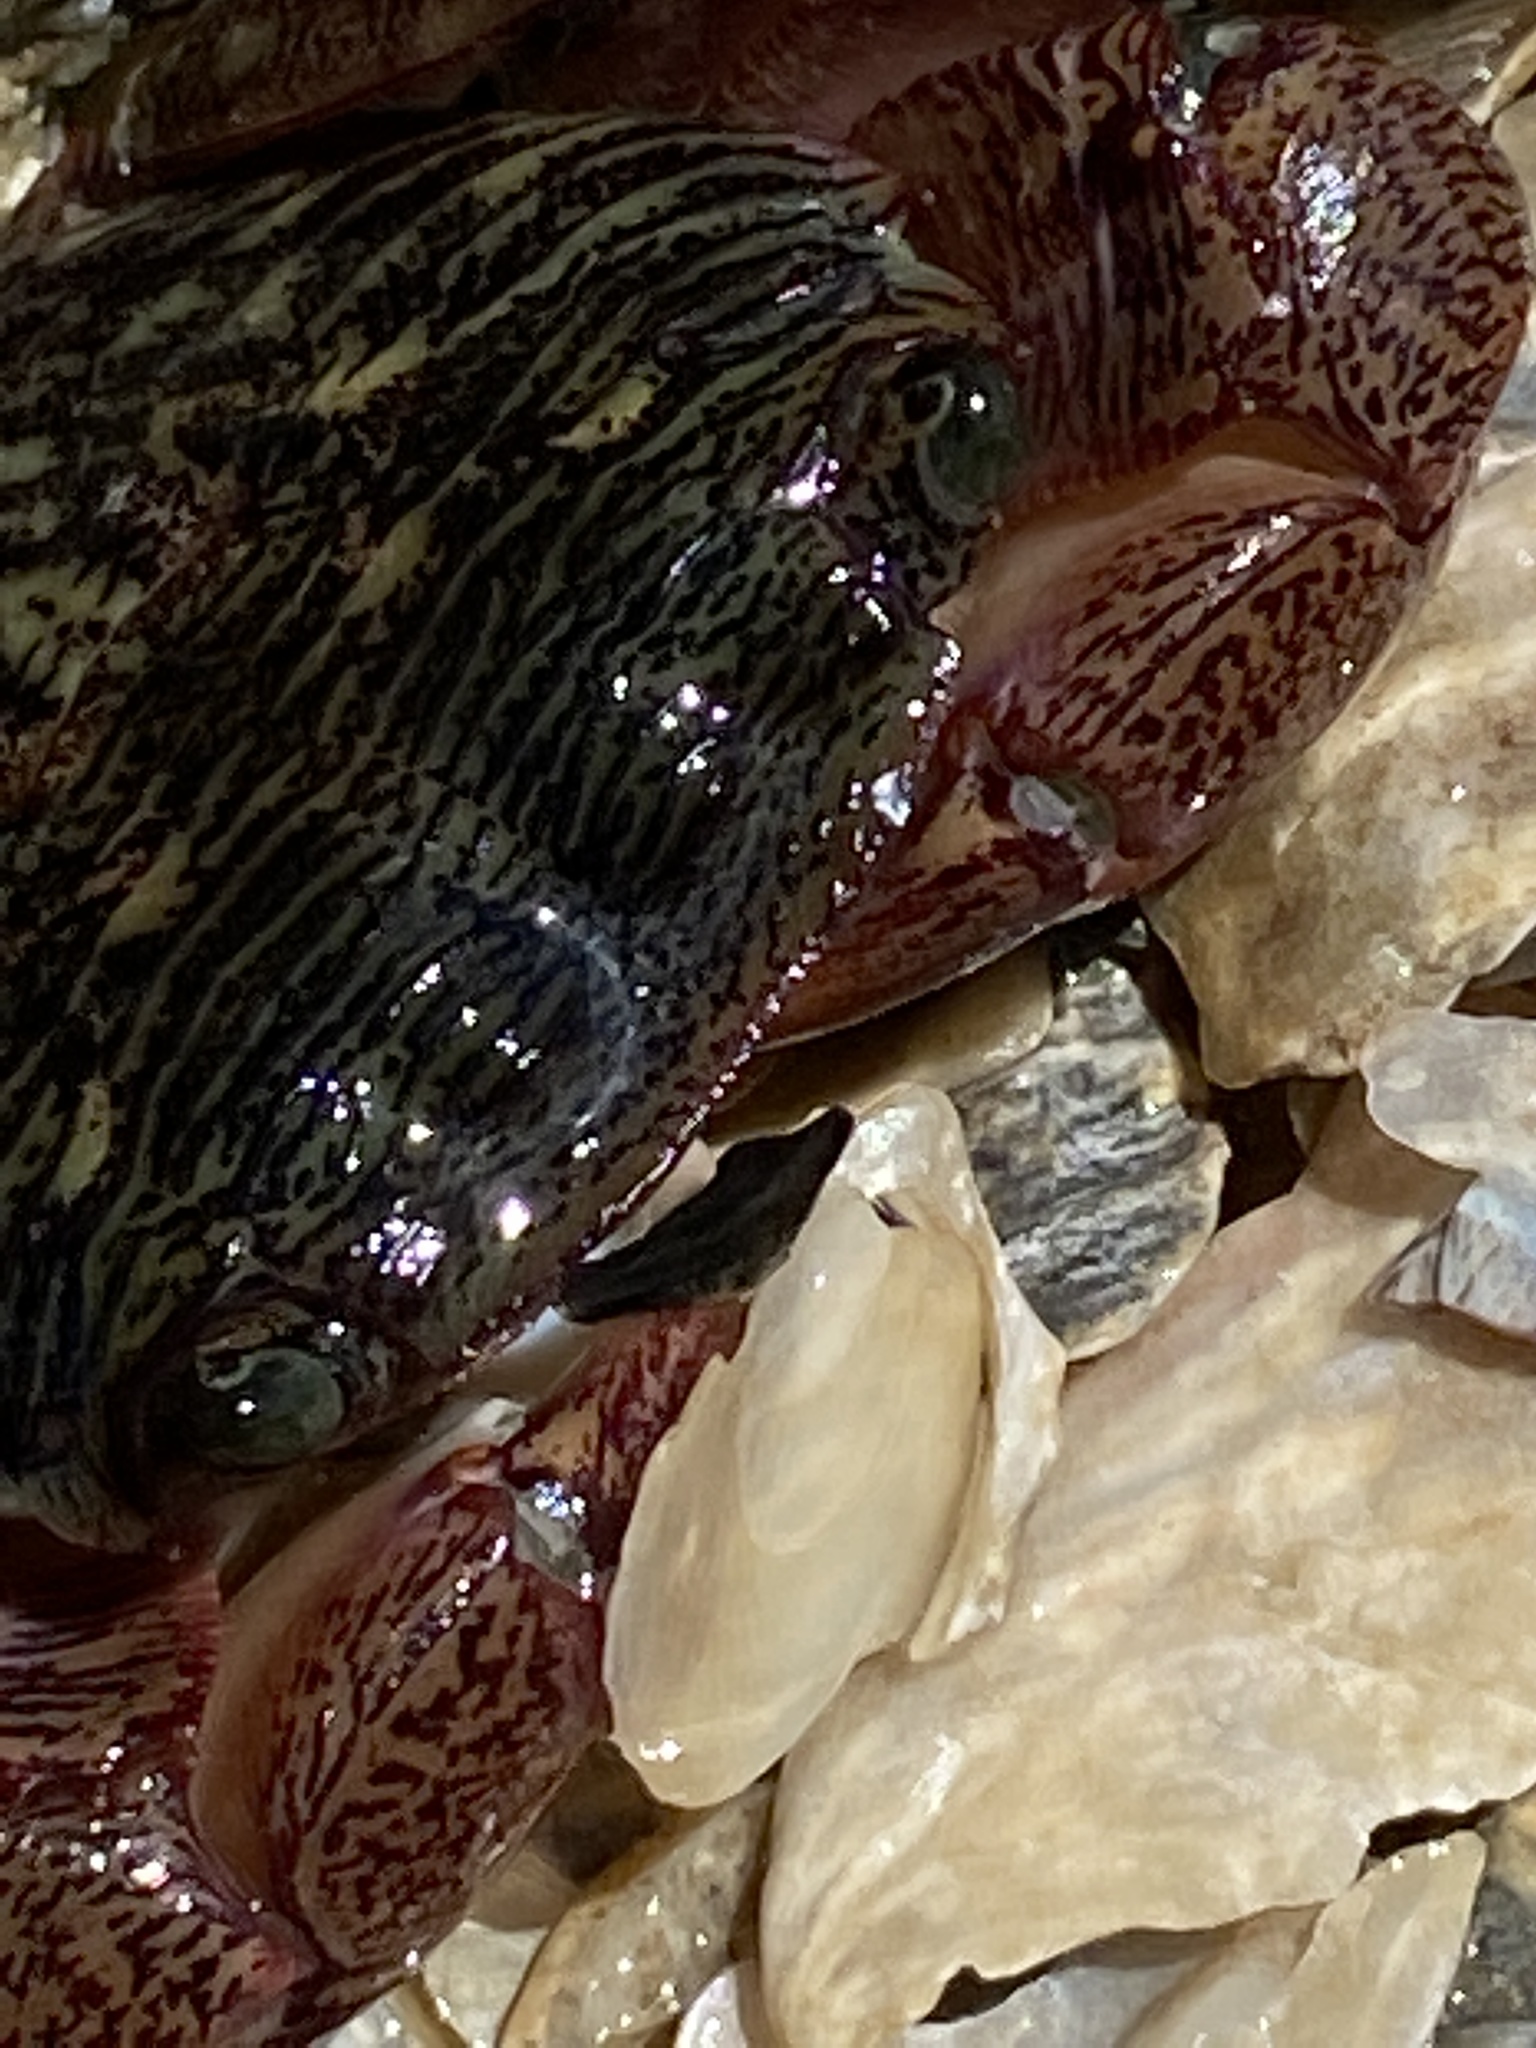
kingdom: Animalia
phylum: Arthropoda
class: Malacostraca
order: Decapoda
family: Grapsidae
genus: Pachygrapsus
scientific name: Pachygrapsus crassipes
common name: Striped shore crab
